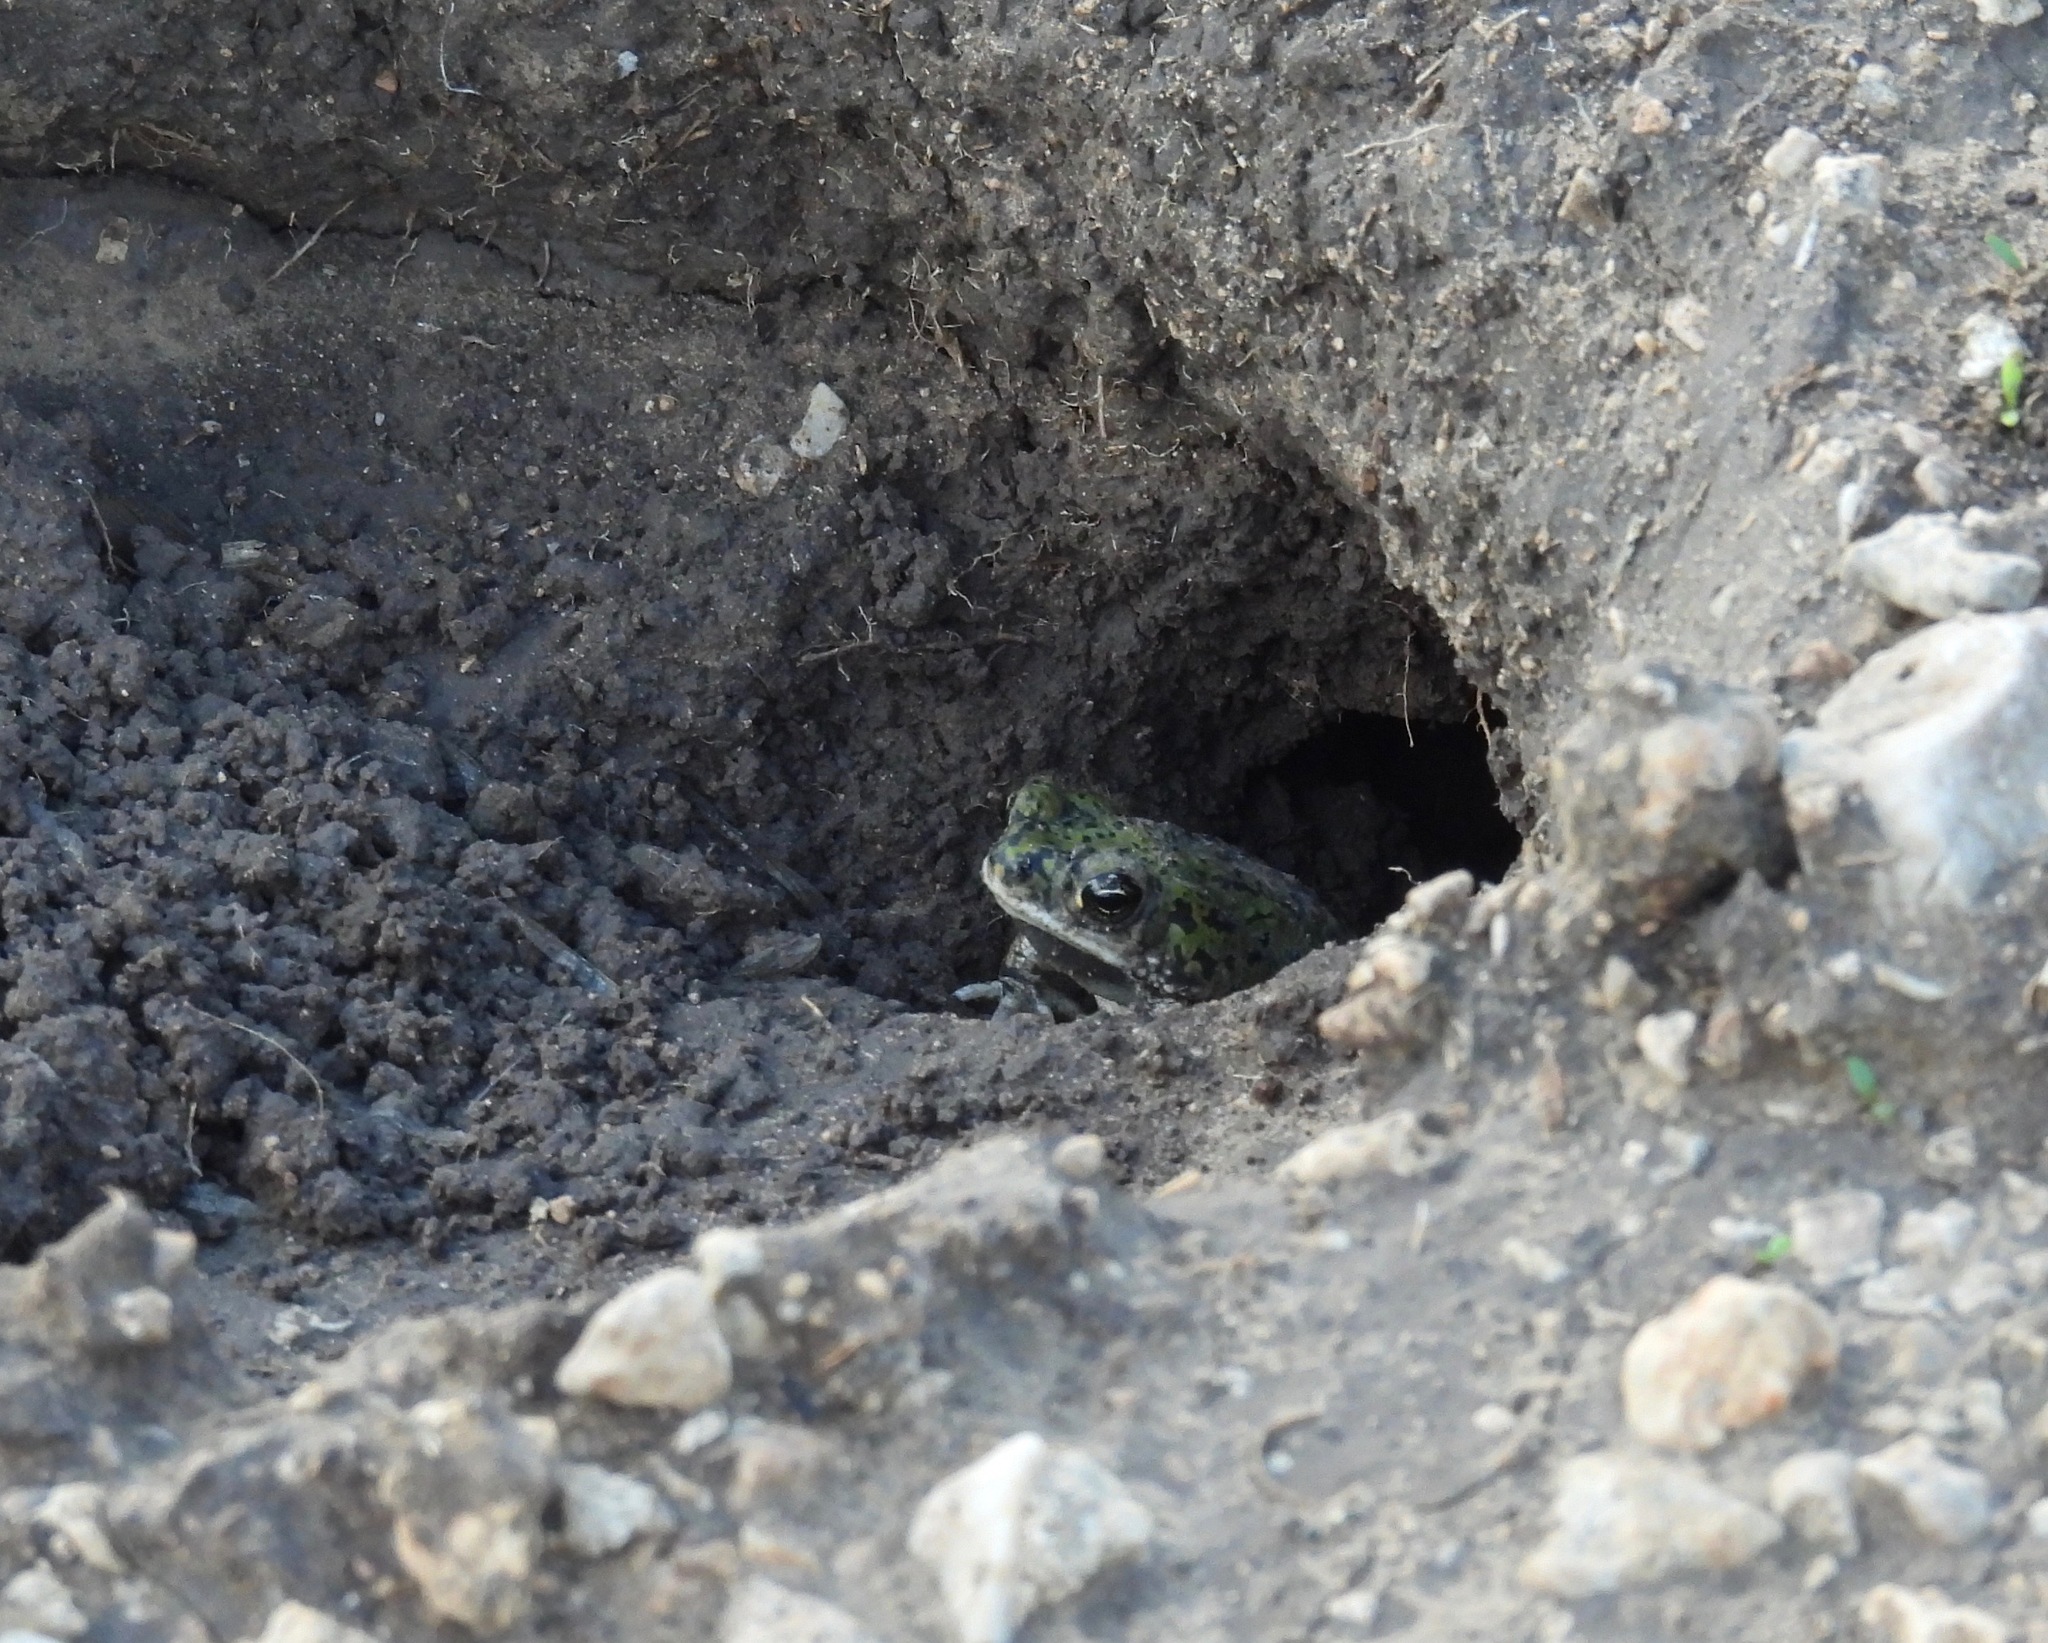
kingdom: Animalia
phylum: Chordata
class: Amphibia
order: Anura
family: Bufonidae
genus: Anaxyrus
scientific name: Anaxyrus debilis
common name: Green toad
